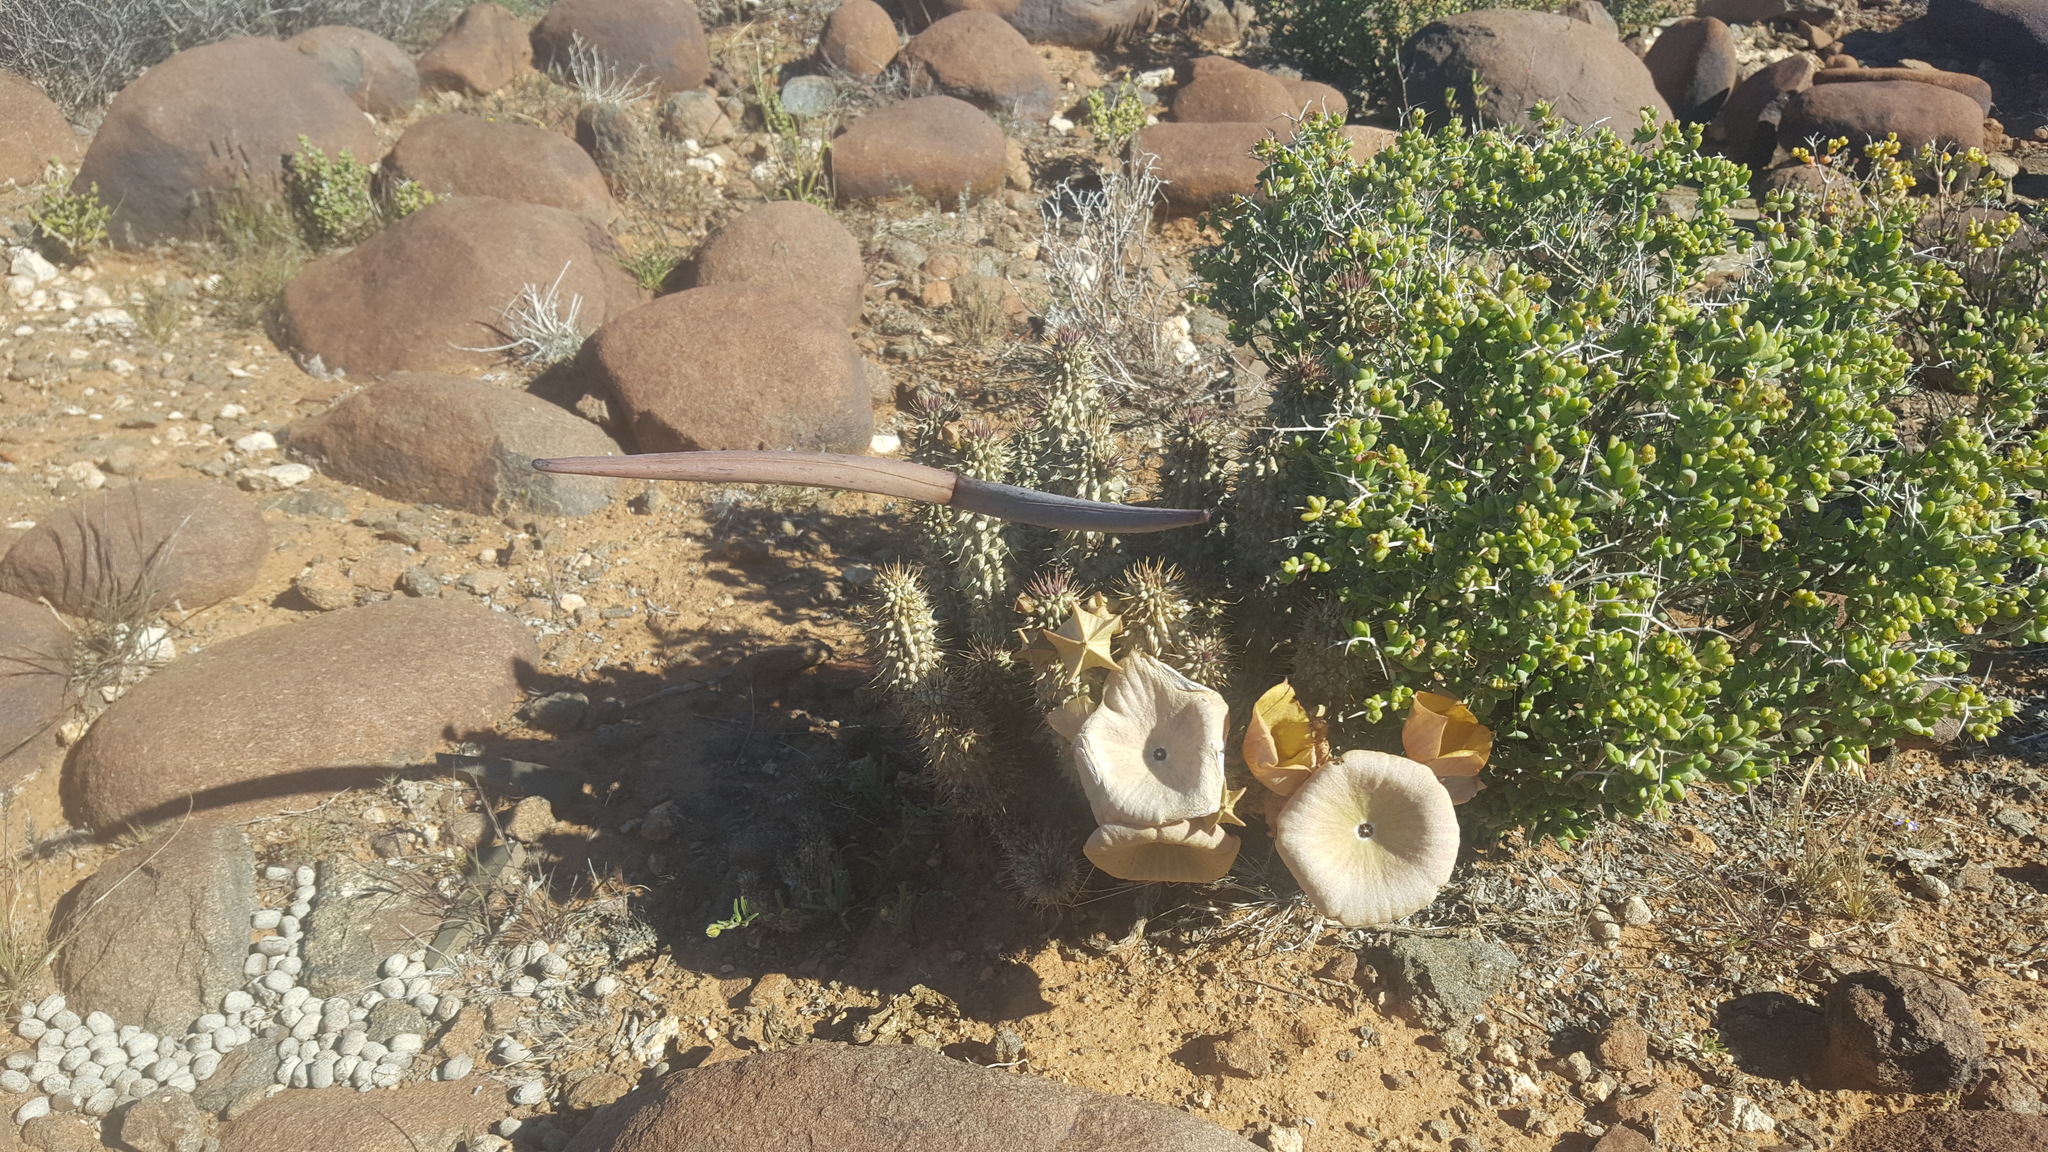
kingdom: Plantae
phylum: Tracheophyta
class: Magnoliopsida
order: Gentianales
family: Apocynaceae
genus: Hoodia
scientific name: Hoodia gordonii
